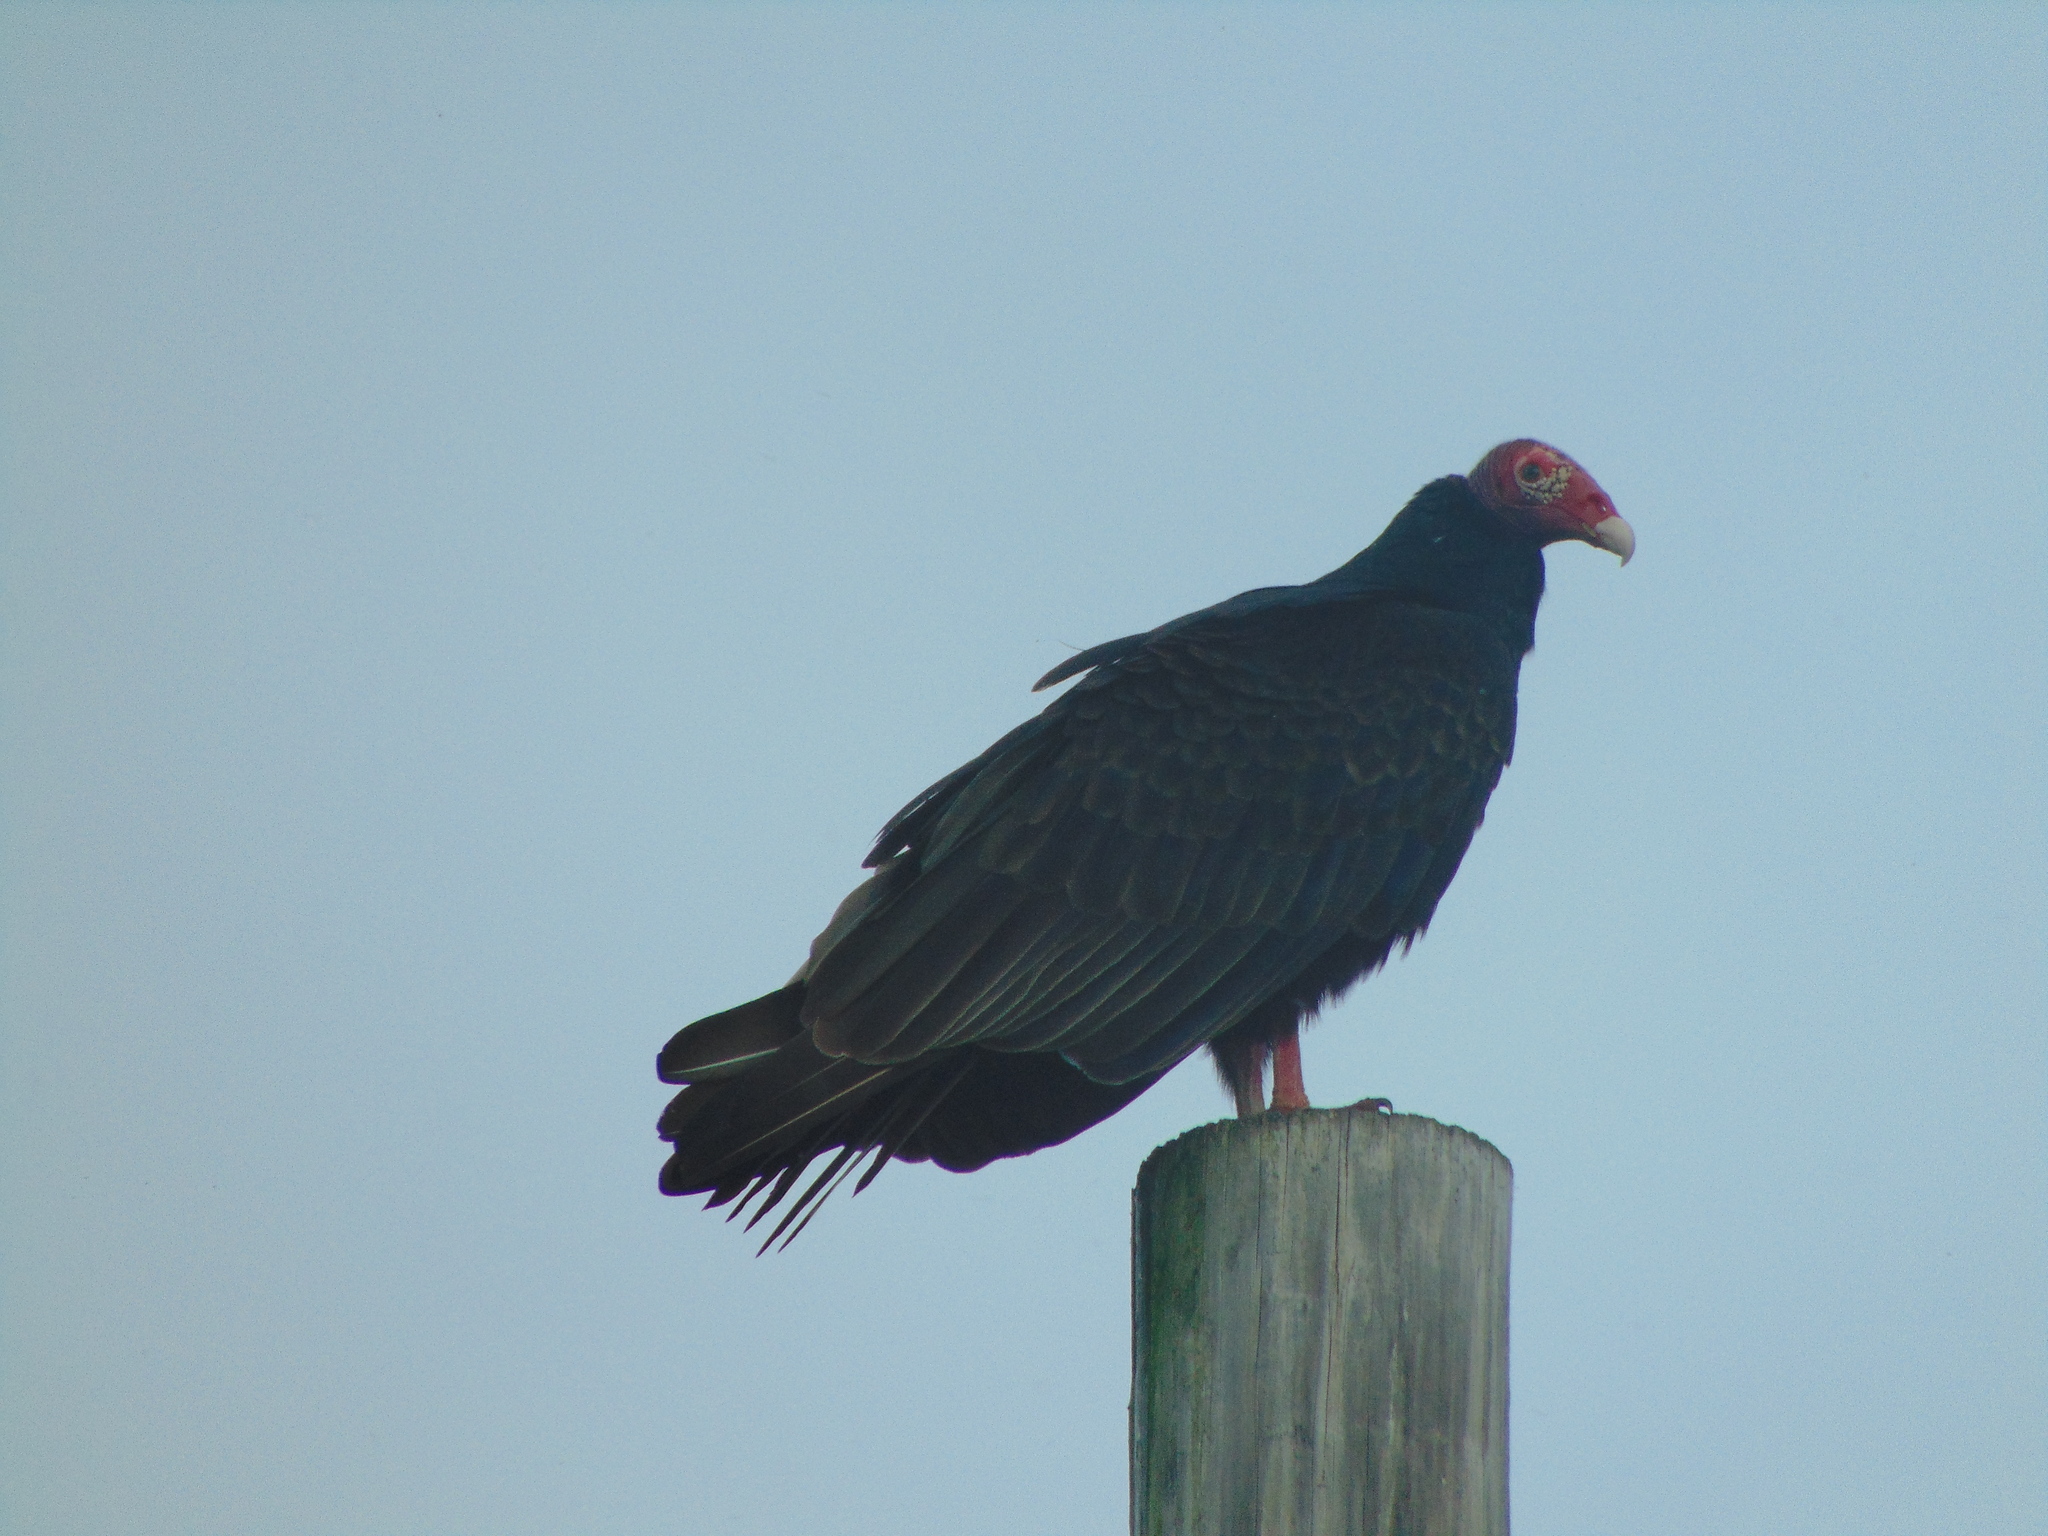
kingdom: Animalia
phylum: Chordata
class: Aves
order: Accipitriformes
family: Cathartidae
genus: Cathartes
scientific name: Cathartes aura
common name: Turkey vulture
